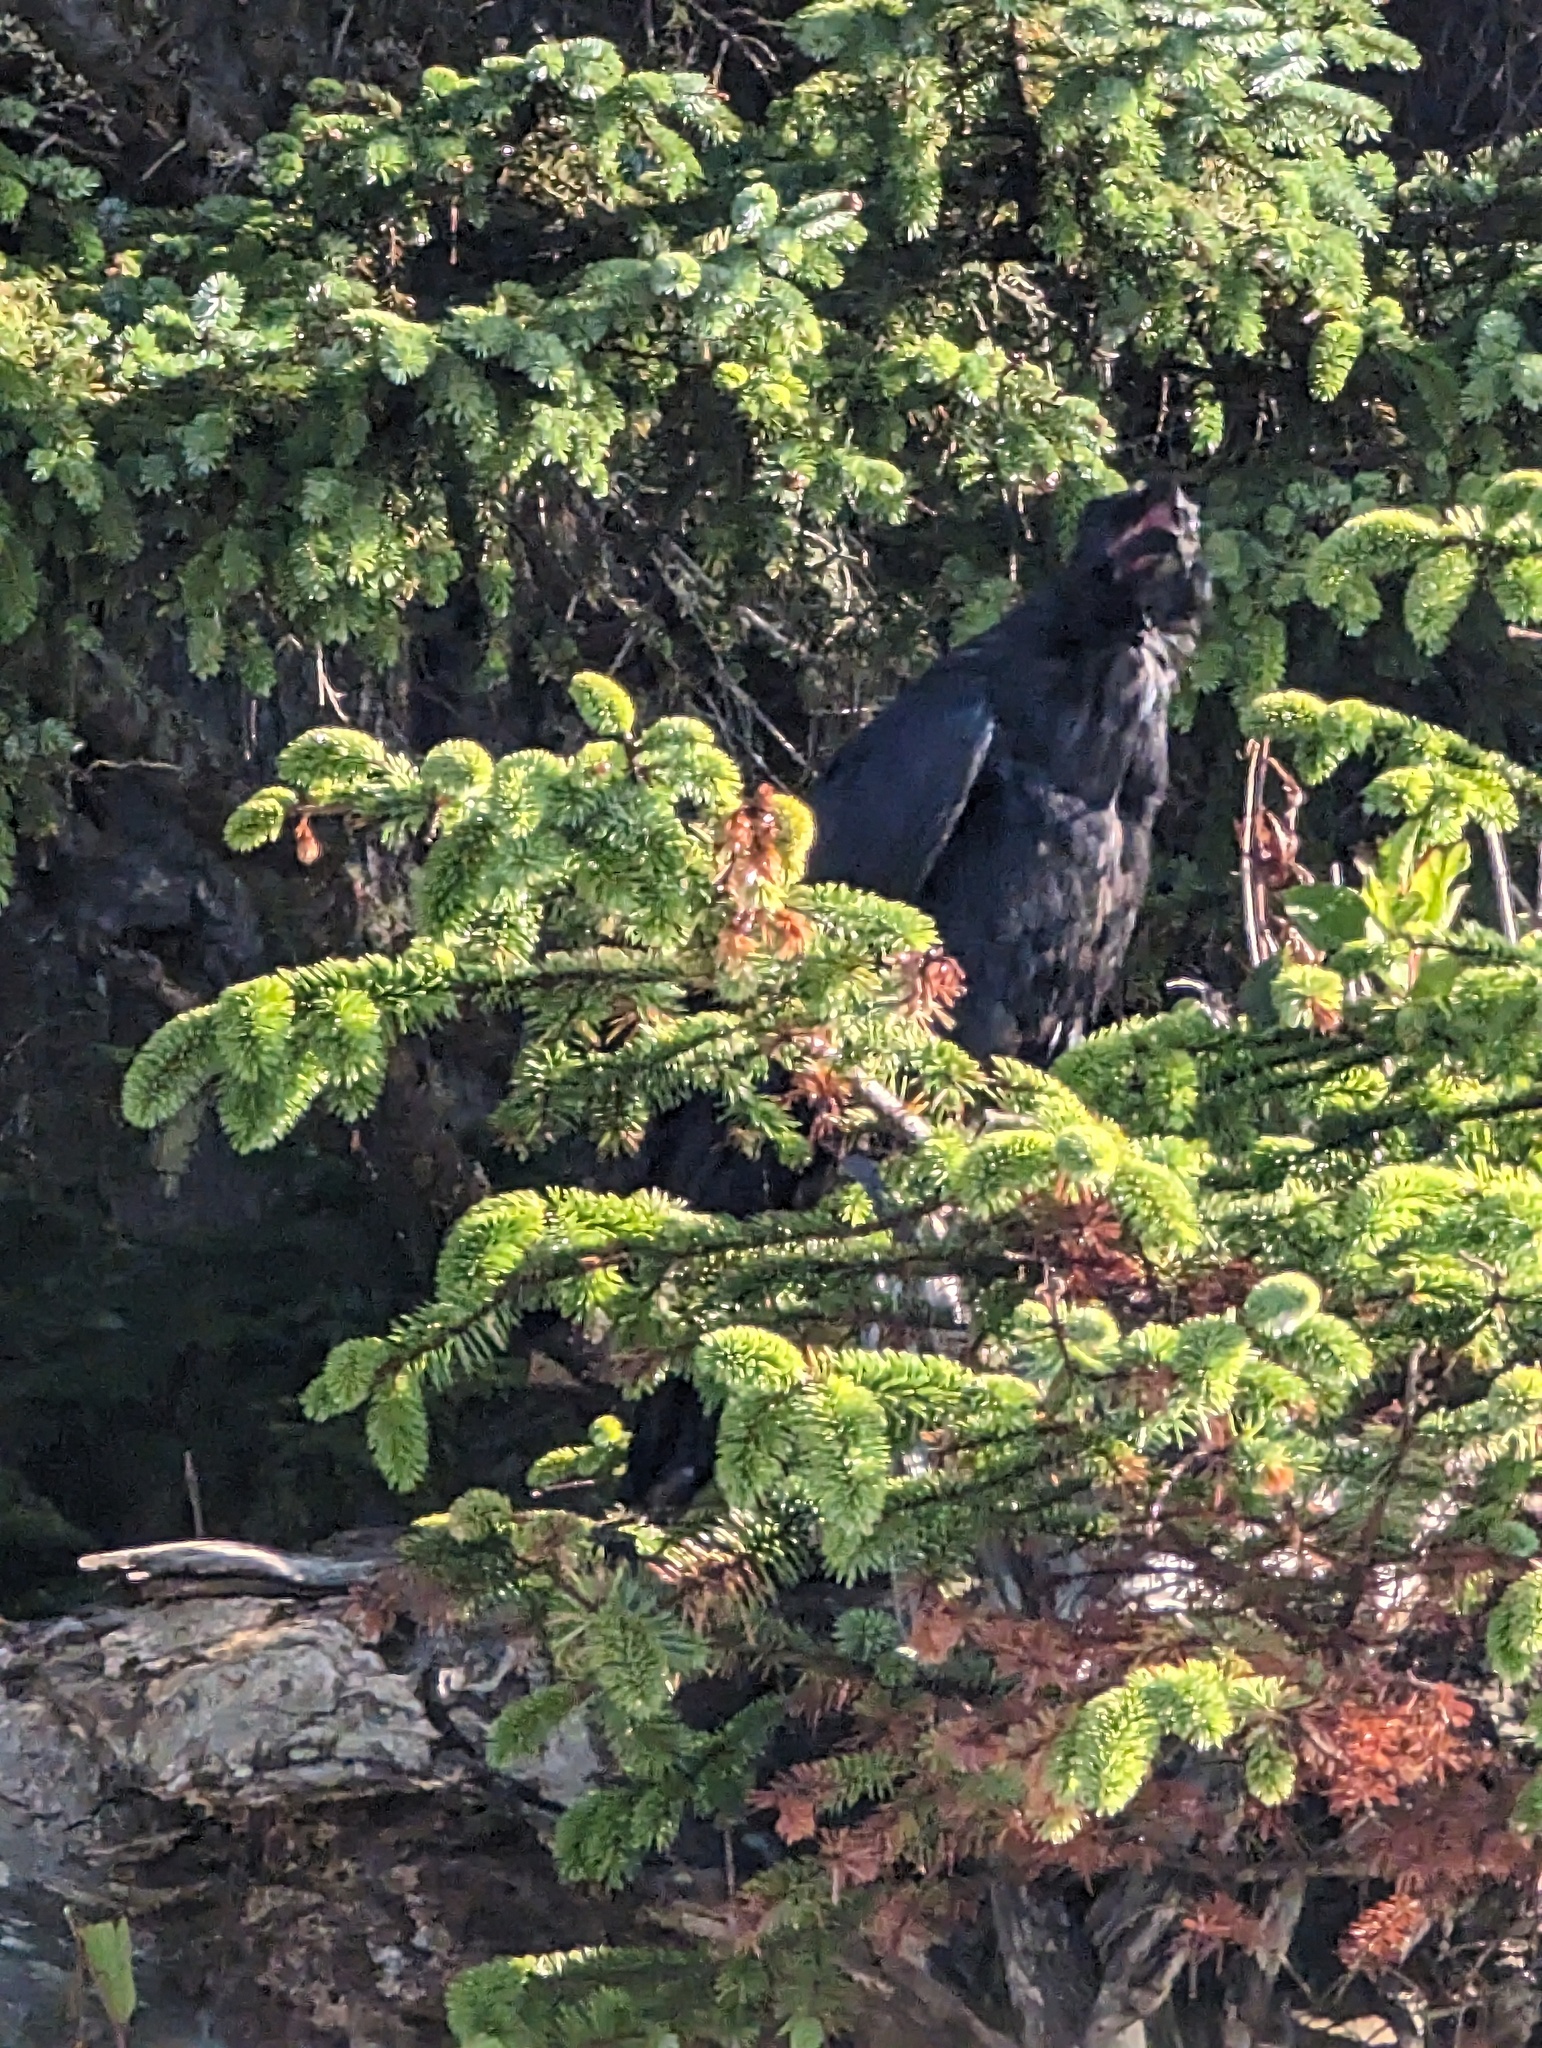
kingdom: Animalia
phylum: Chordata
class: Aves
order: Passeriformes
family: Corvidae
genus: Corvus
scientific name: Corvus corax
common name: Common raven
